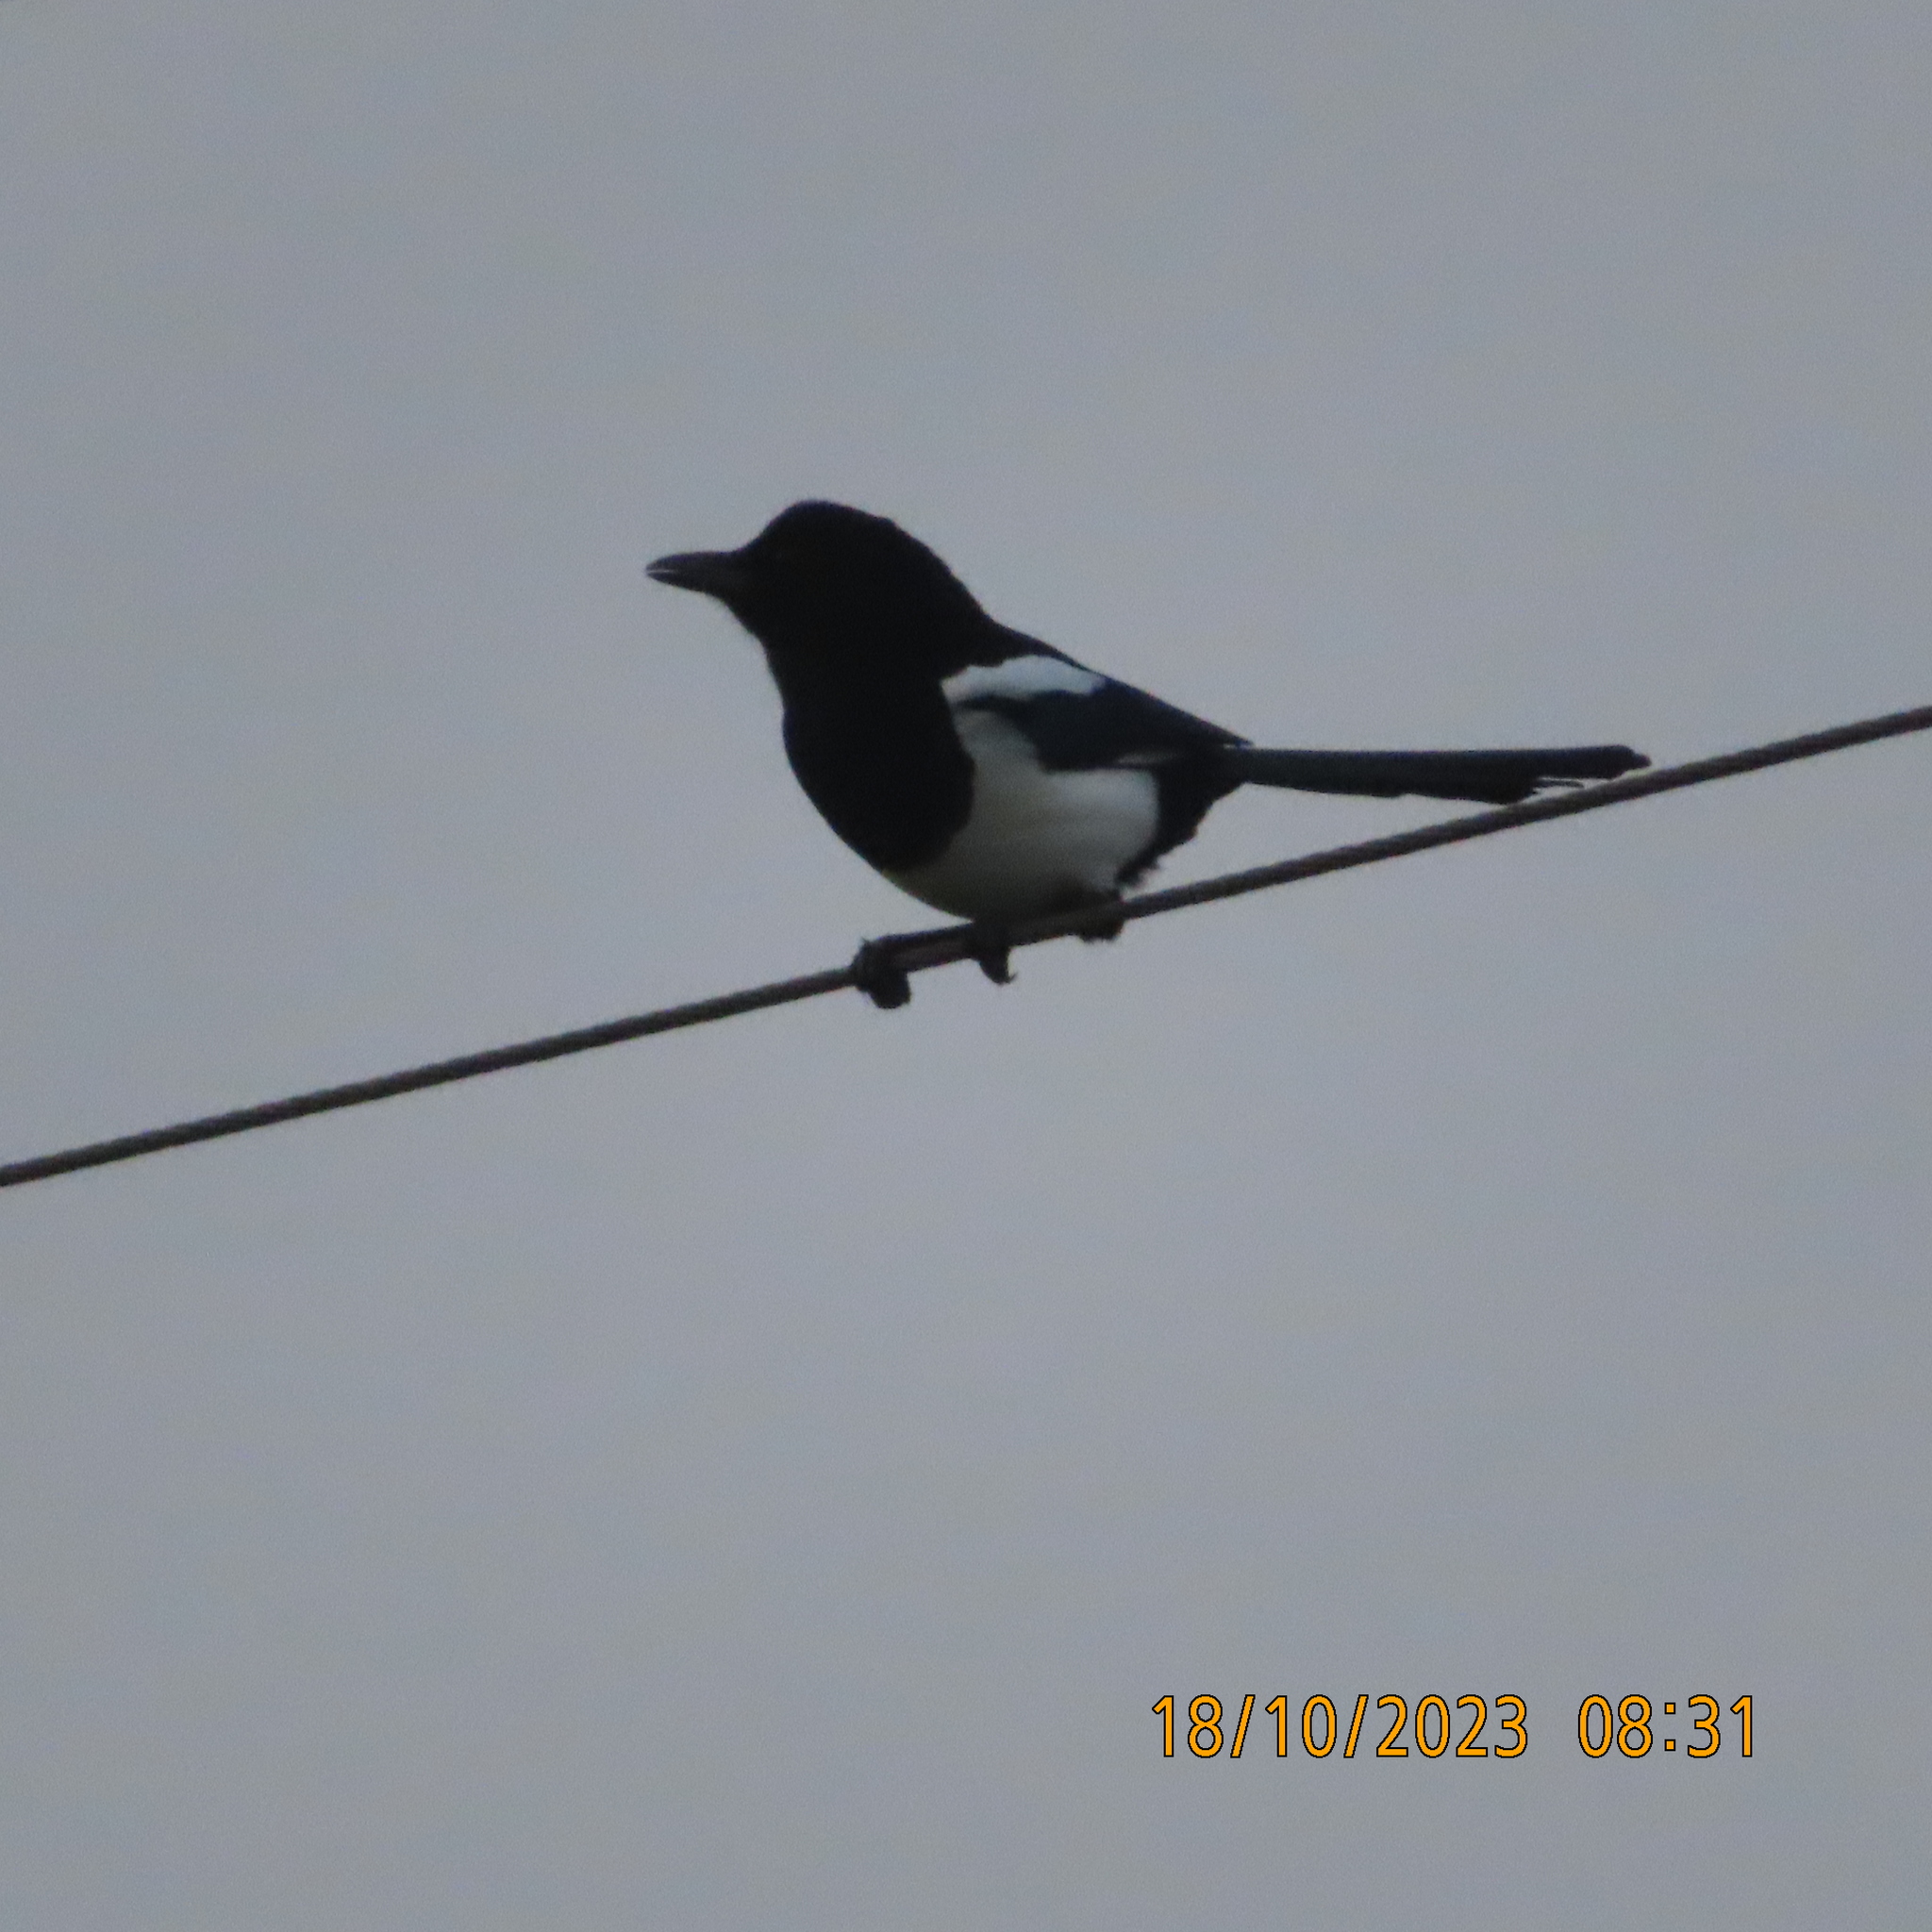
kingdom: Animalia
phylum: Chordata
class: Aves
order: Passeriformes
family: Corvidae
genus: Pica
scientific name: Pica pica
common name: Eurasian magpie
